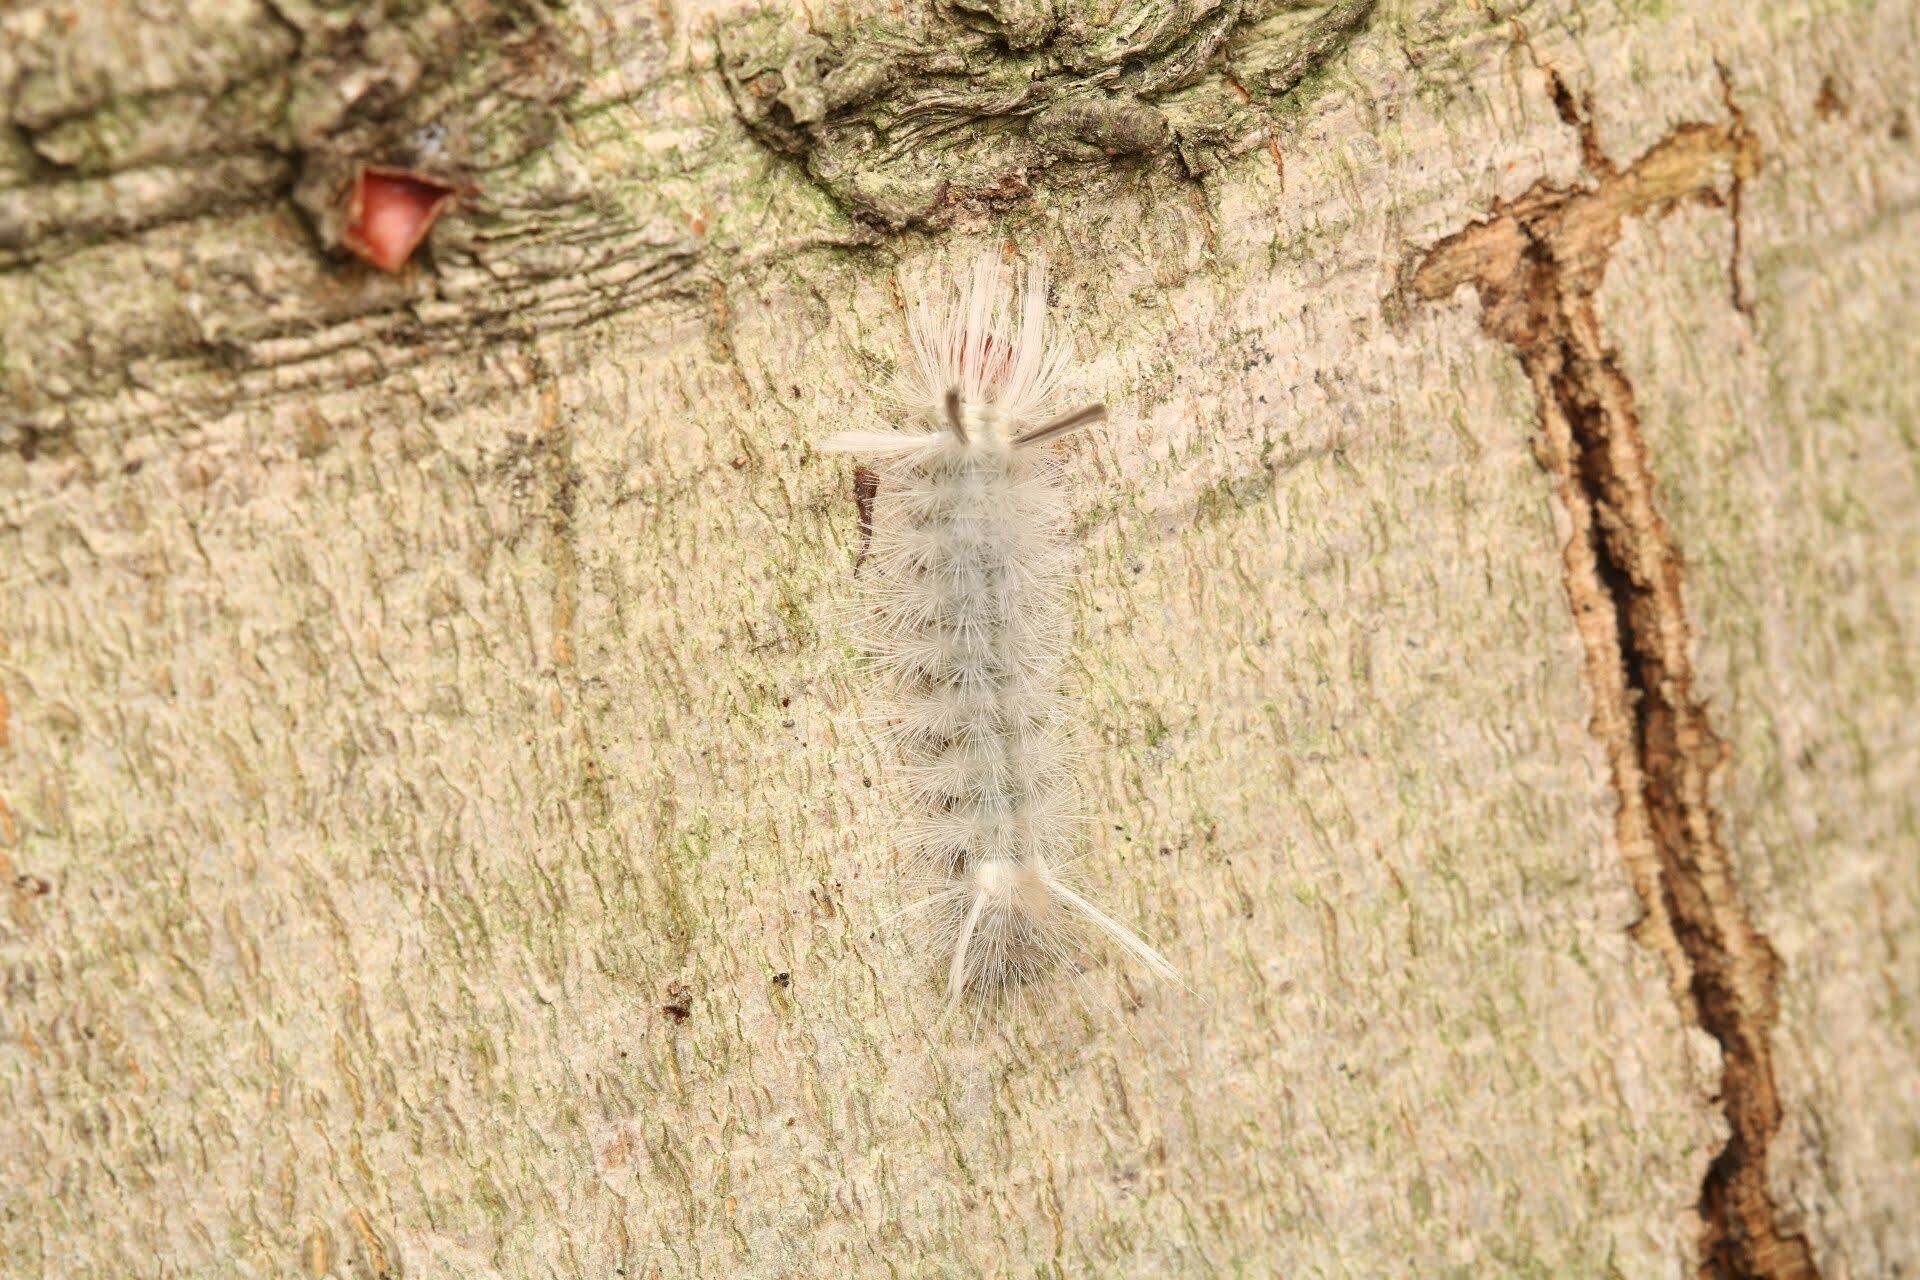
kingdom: Animalia
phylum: Arthropoda
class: Insecta
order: Lepidoptera
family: Erebidae
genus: Halysidota
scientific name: Halysidota tessellaris
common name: Banded tussock moth
